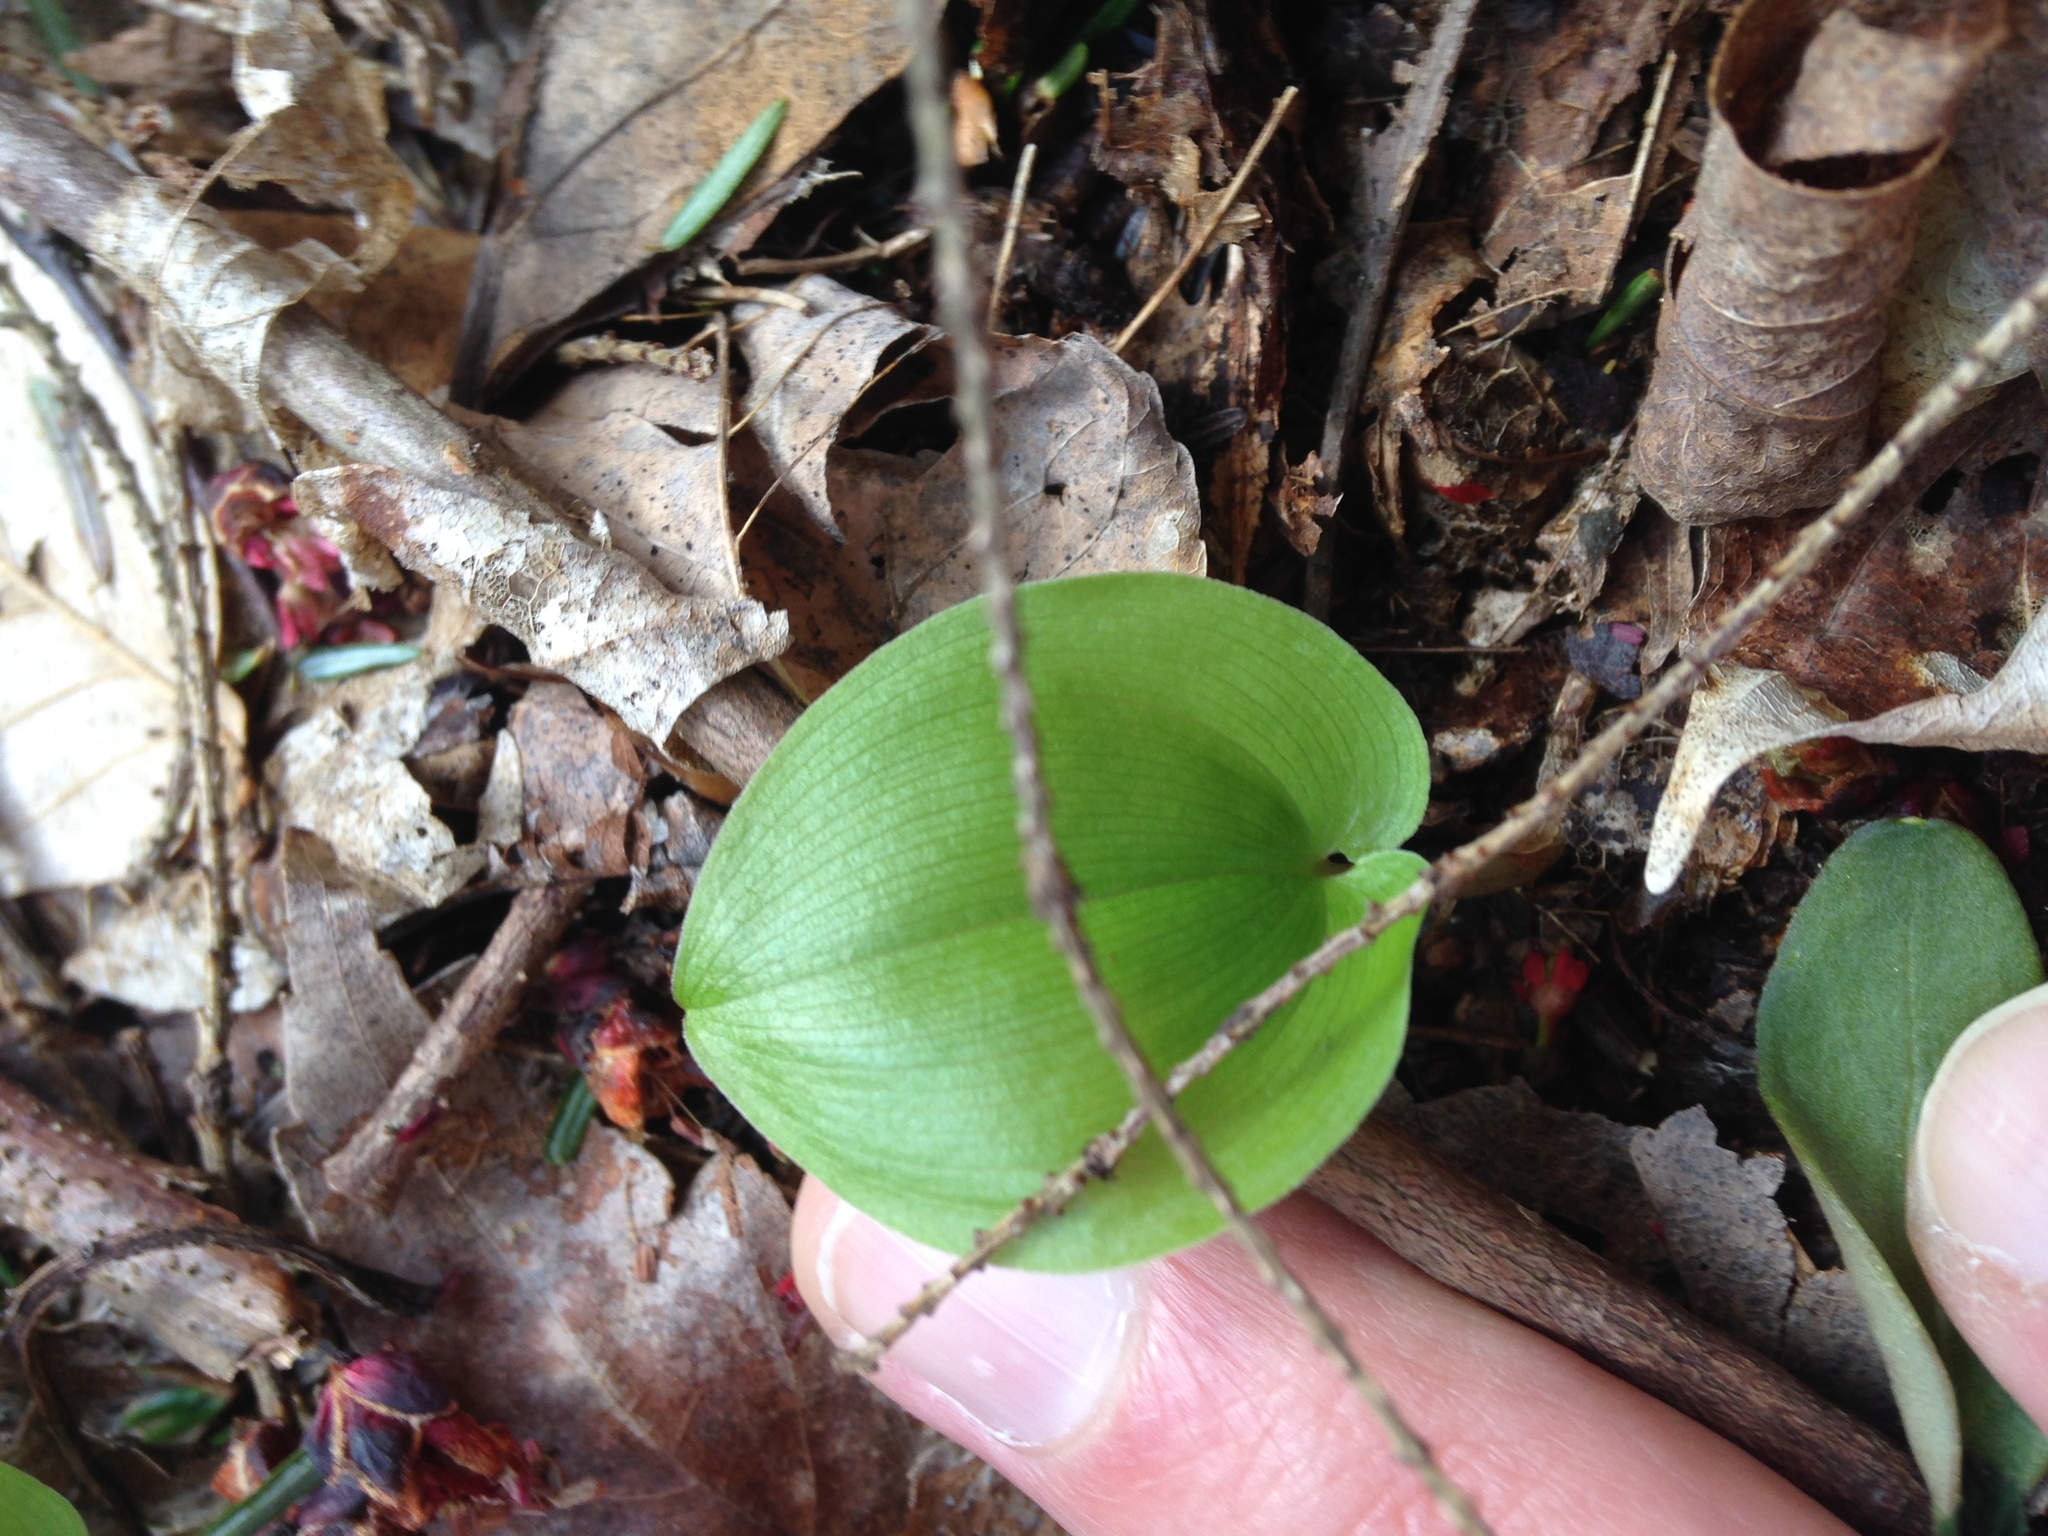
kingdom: Plantae
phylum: Tracheophyta
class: Liliopsida
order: Asparagales
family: Asparagaceae
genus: Maianthemum
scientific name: Maianthemum canadense
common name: False lily-of-the-valley
